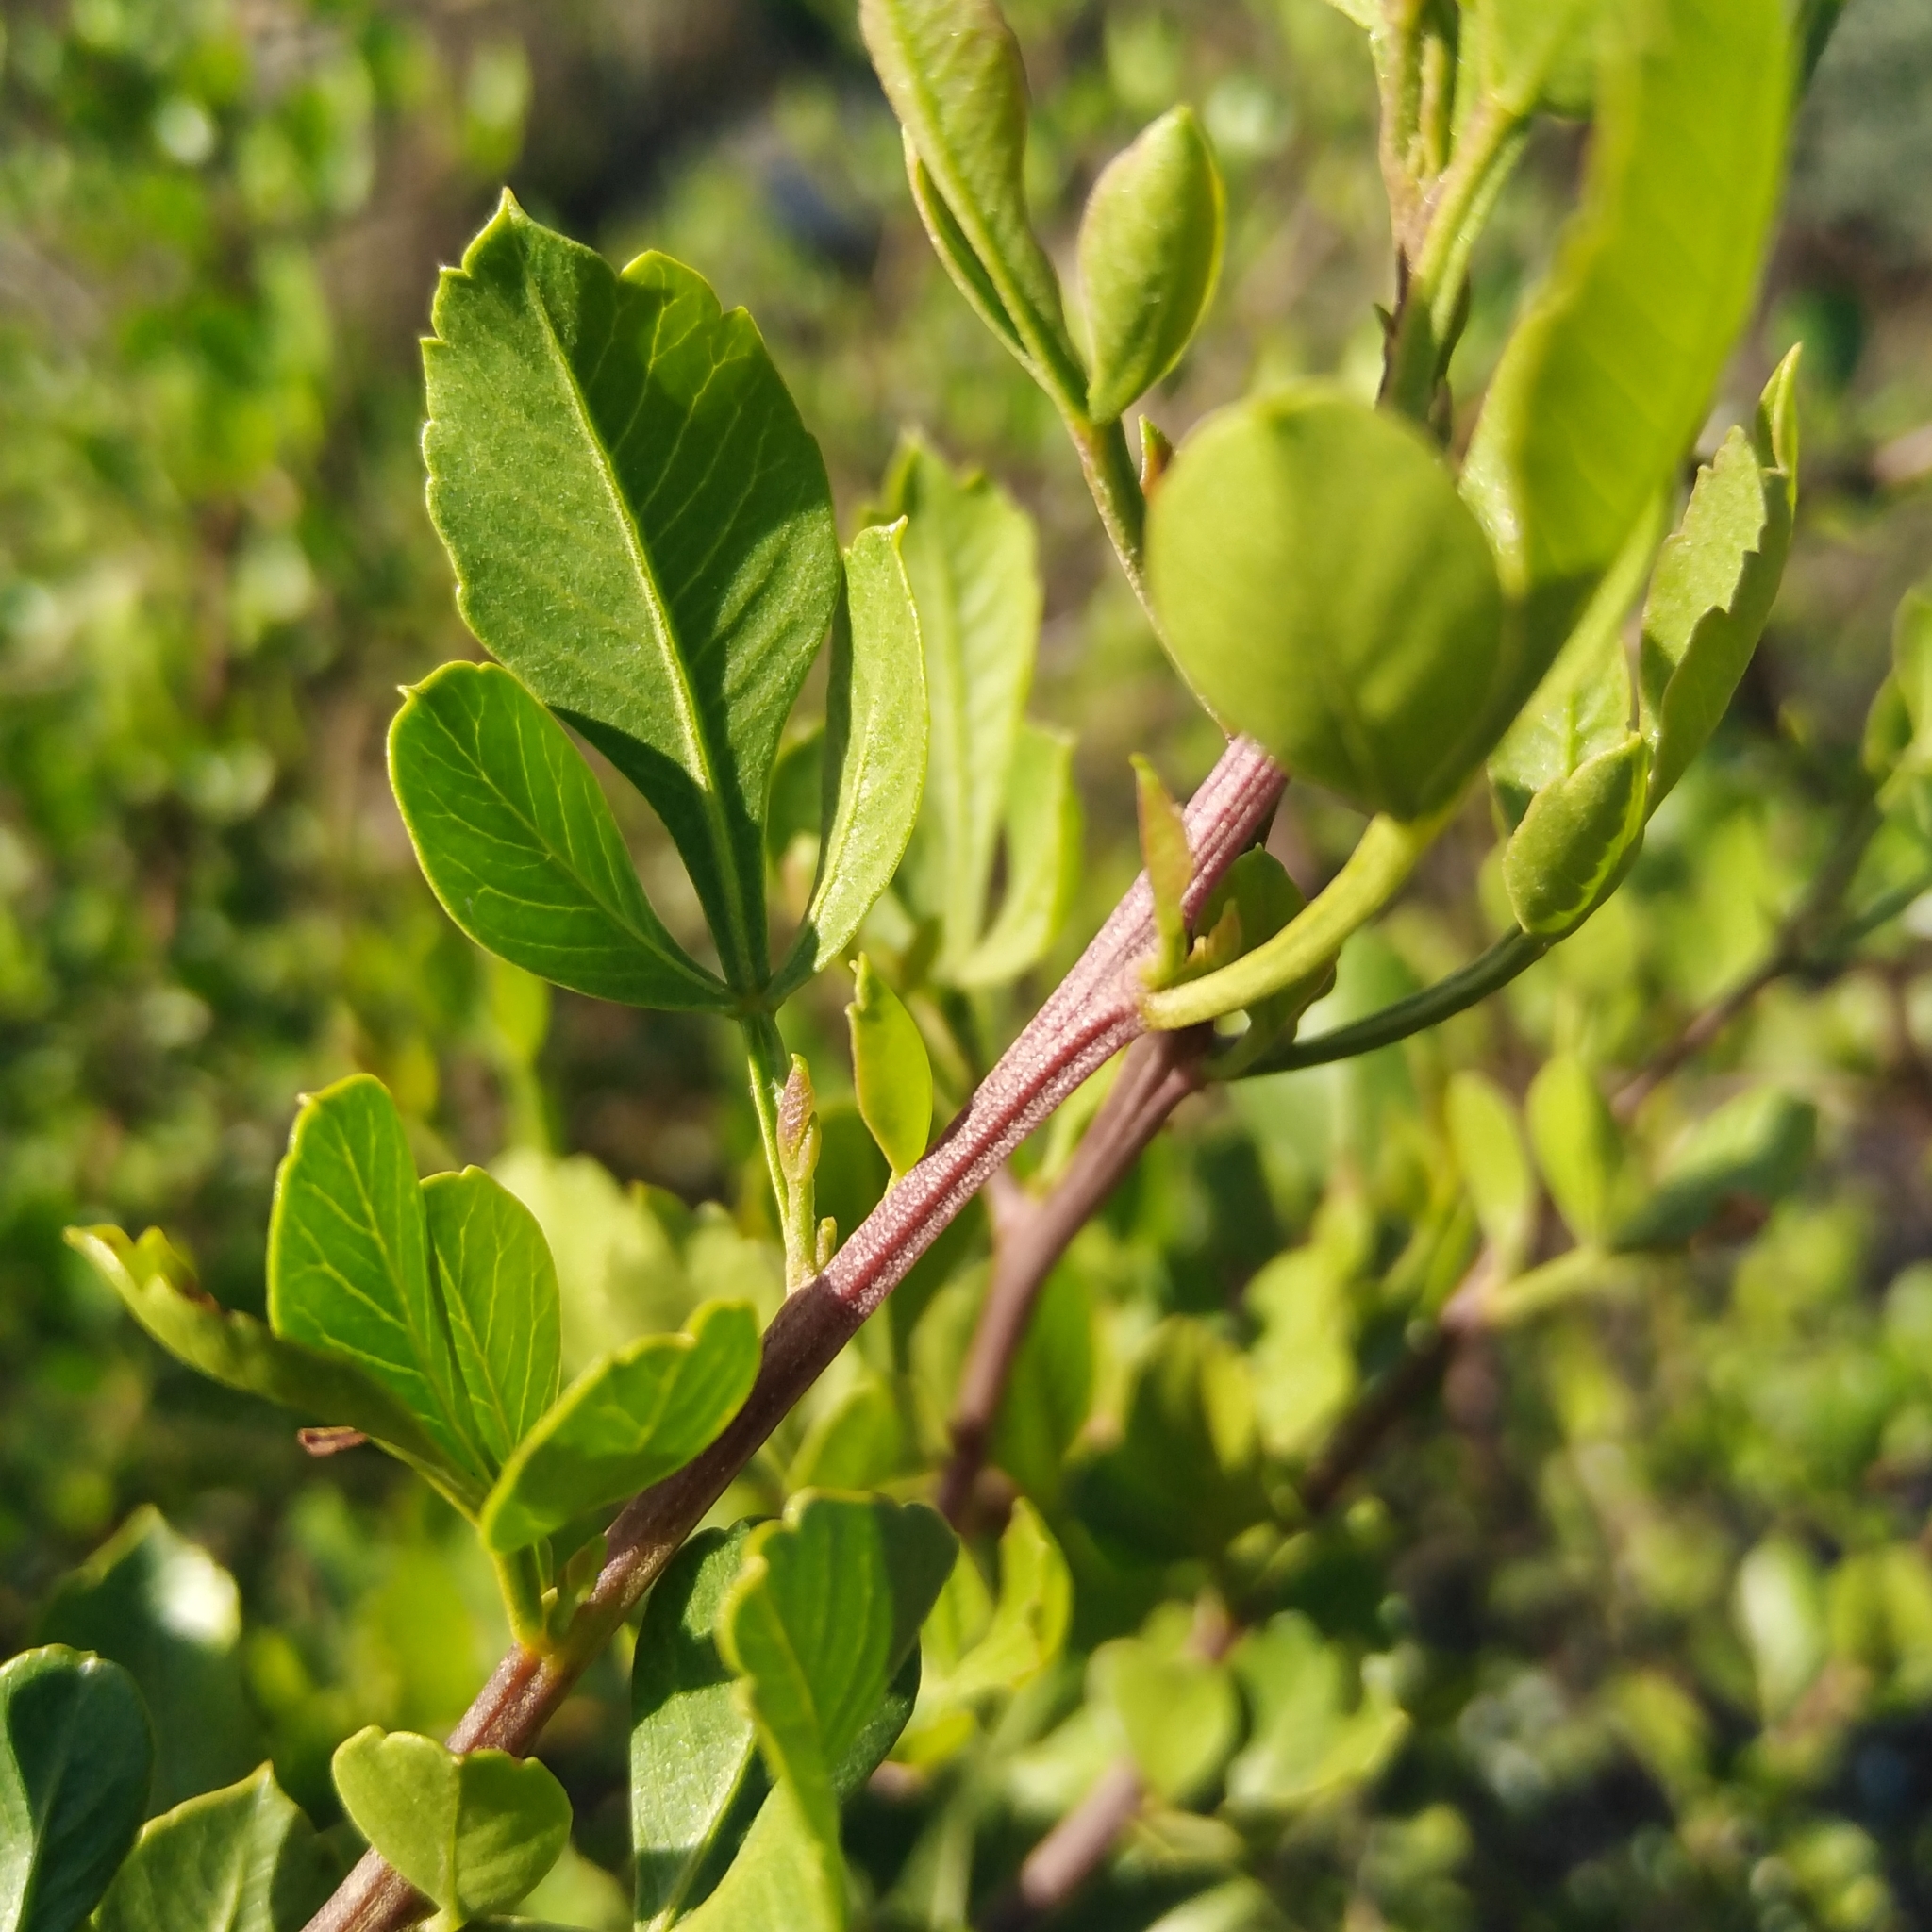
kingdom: Plantae
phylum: Tracheophyta
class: Magnoliopsida
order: Sapindales
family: Anacardiaceae
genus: Searsia
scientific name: Searsia undulata
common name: Namaqua kunibush
